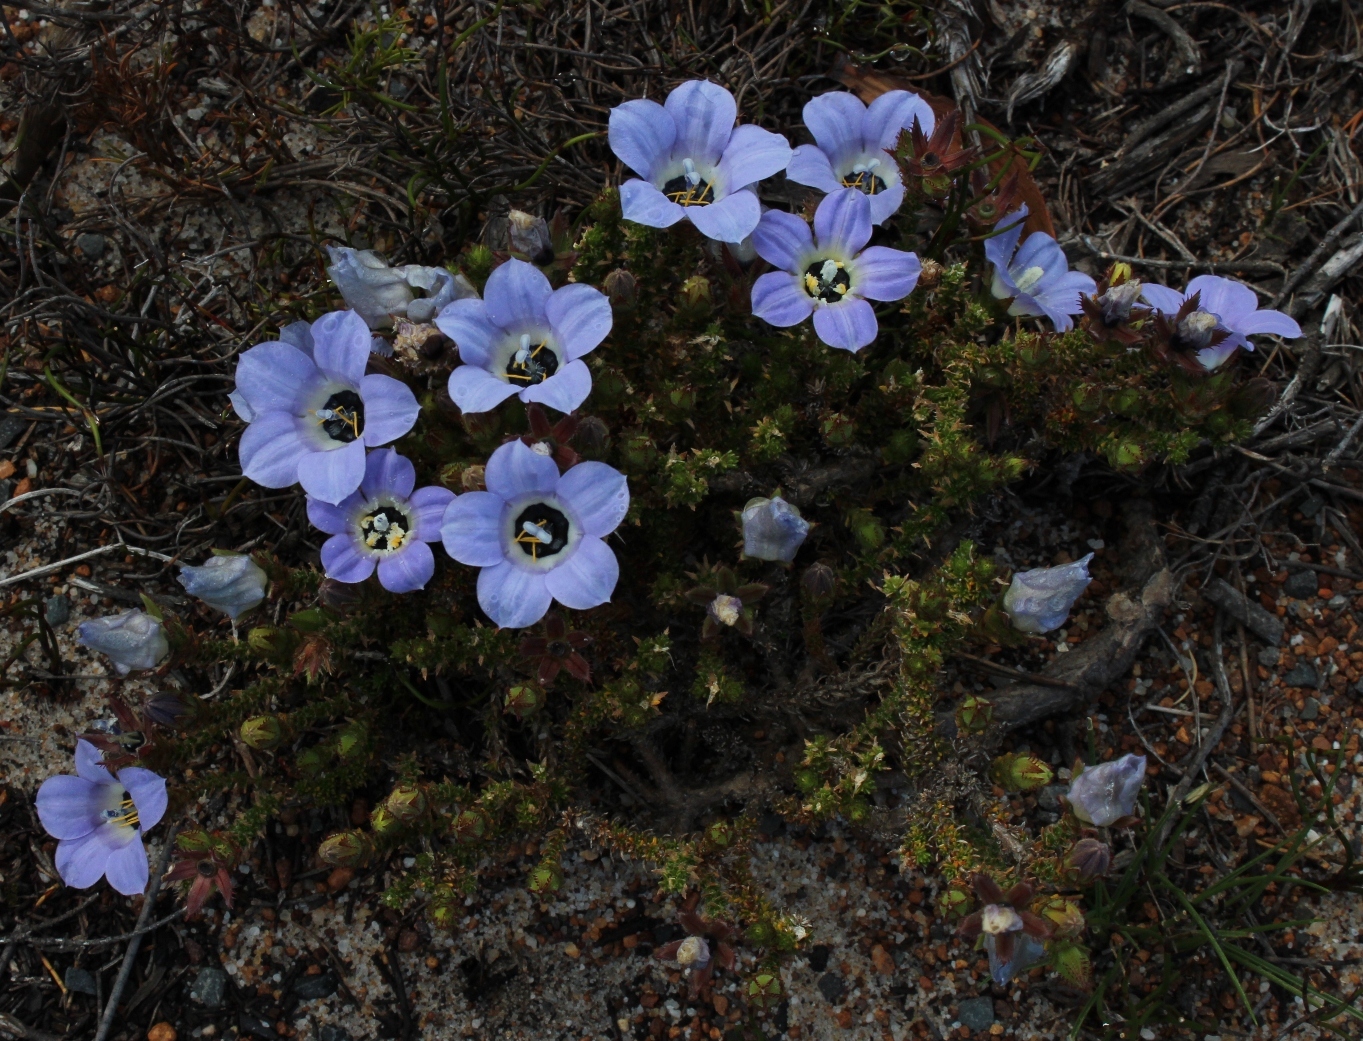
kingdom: Plantae
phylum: Tracheophyta
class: Magnoliopsida
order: Asterales
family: Campanulaceae
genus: Roella
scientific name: Roella triflora
